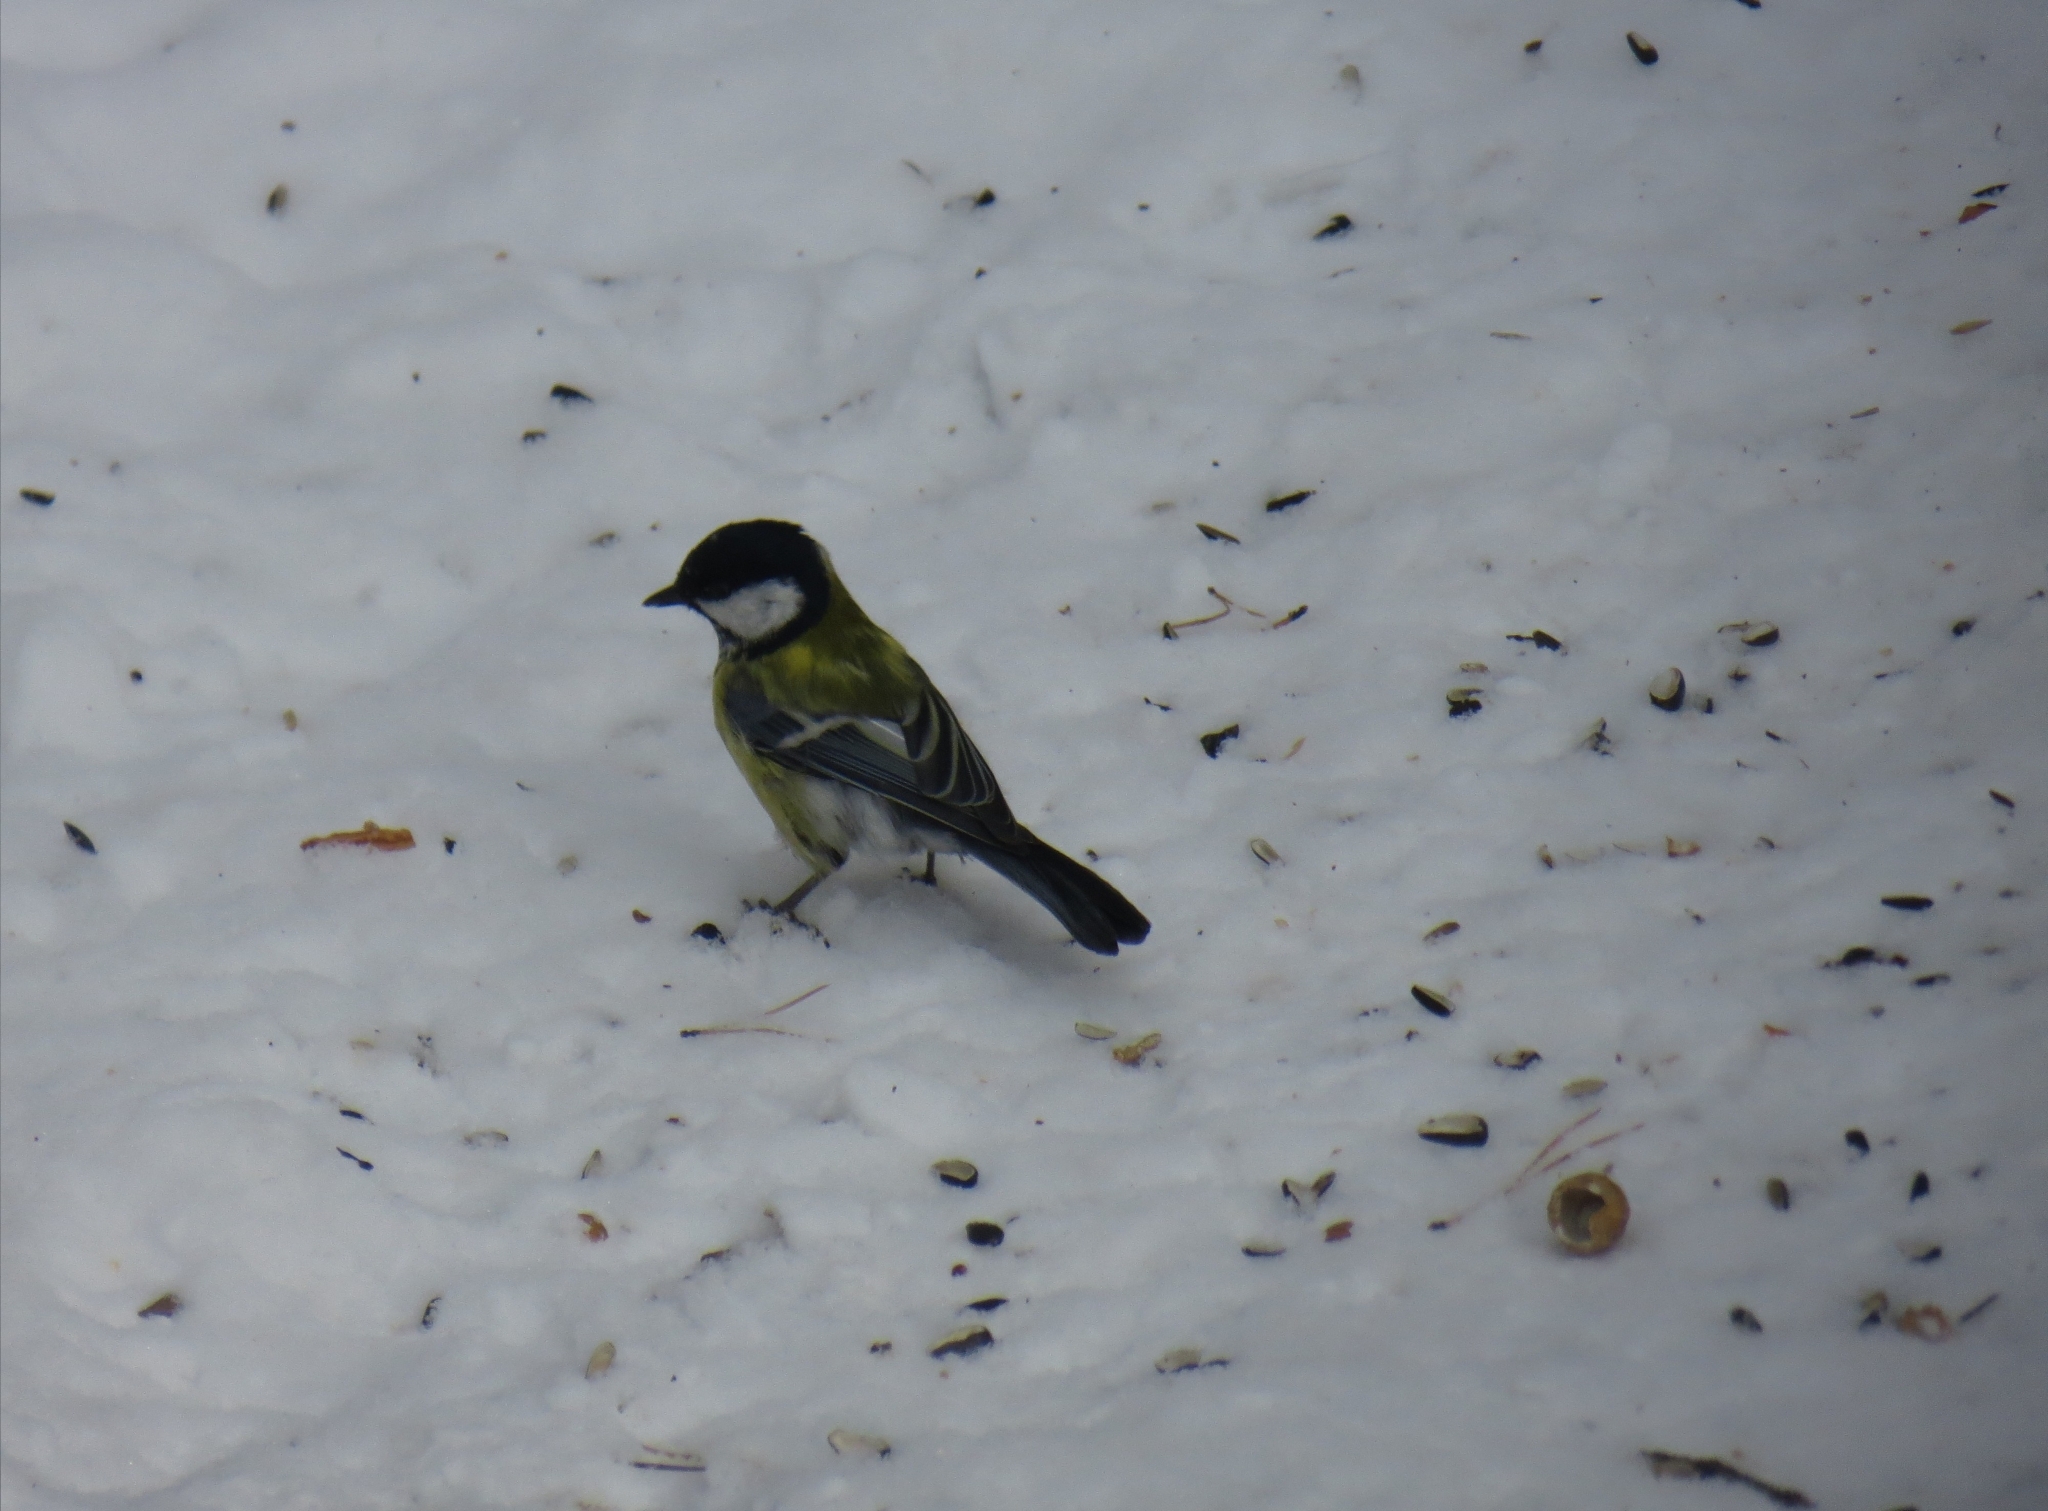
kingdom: Animalia
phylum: Chordata
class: Aves
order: Passeriformes
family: Paridae
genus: Parus
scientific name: Parus major
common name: Great tit
